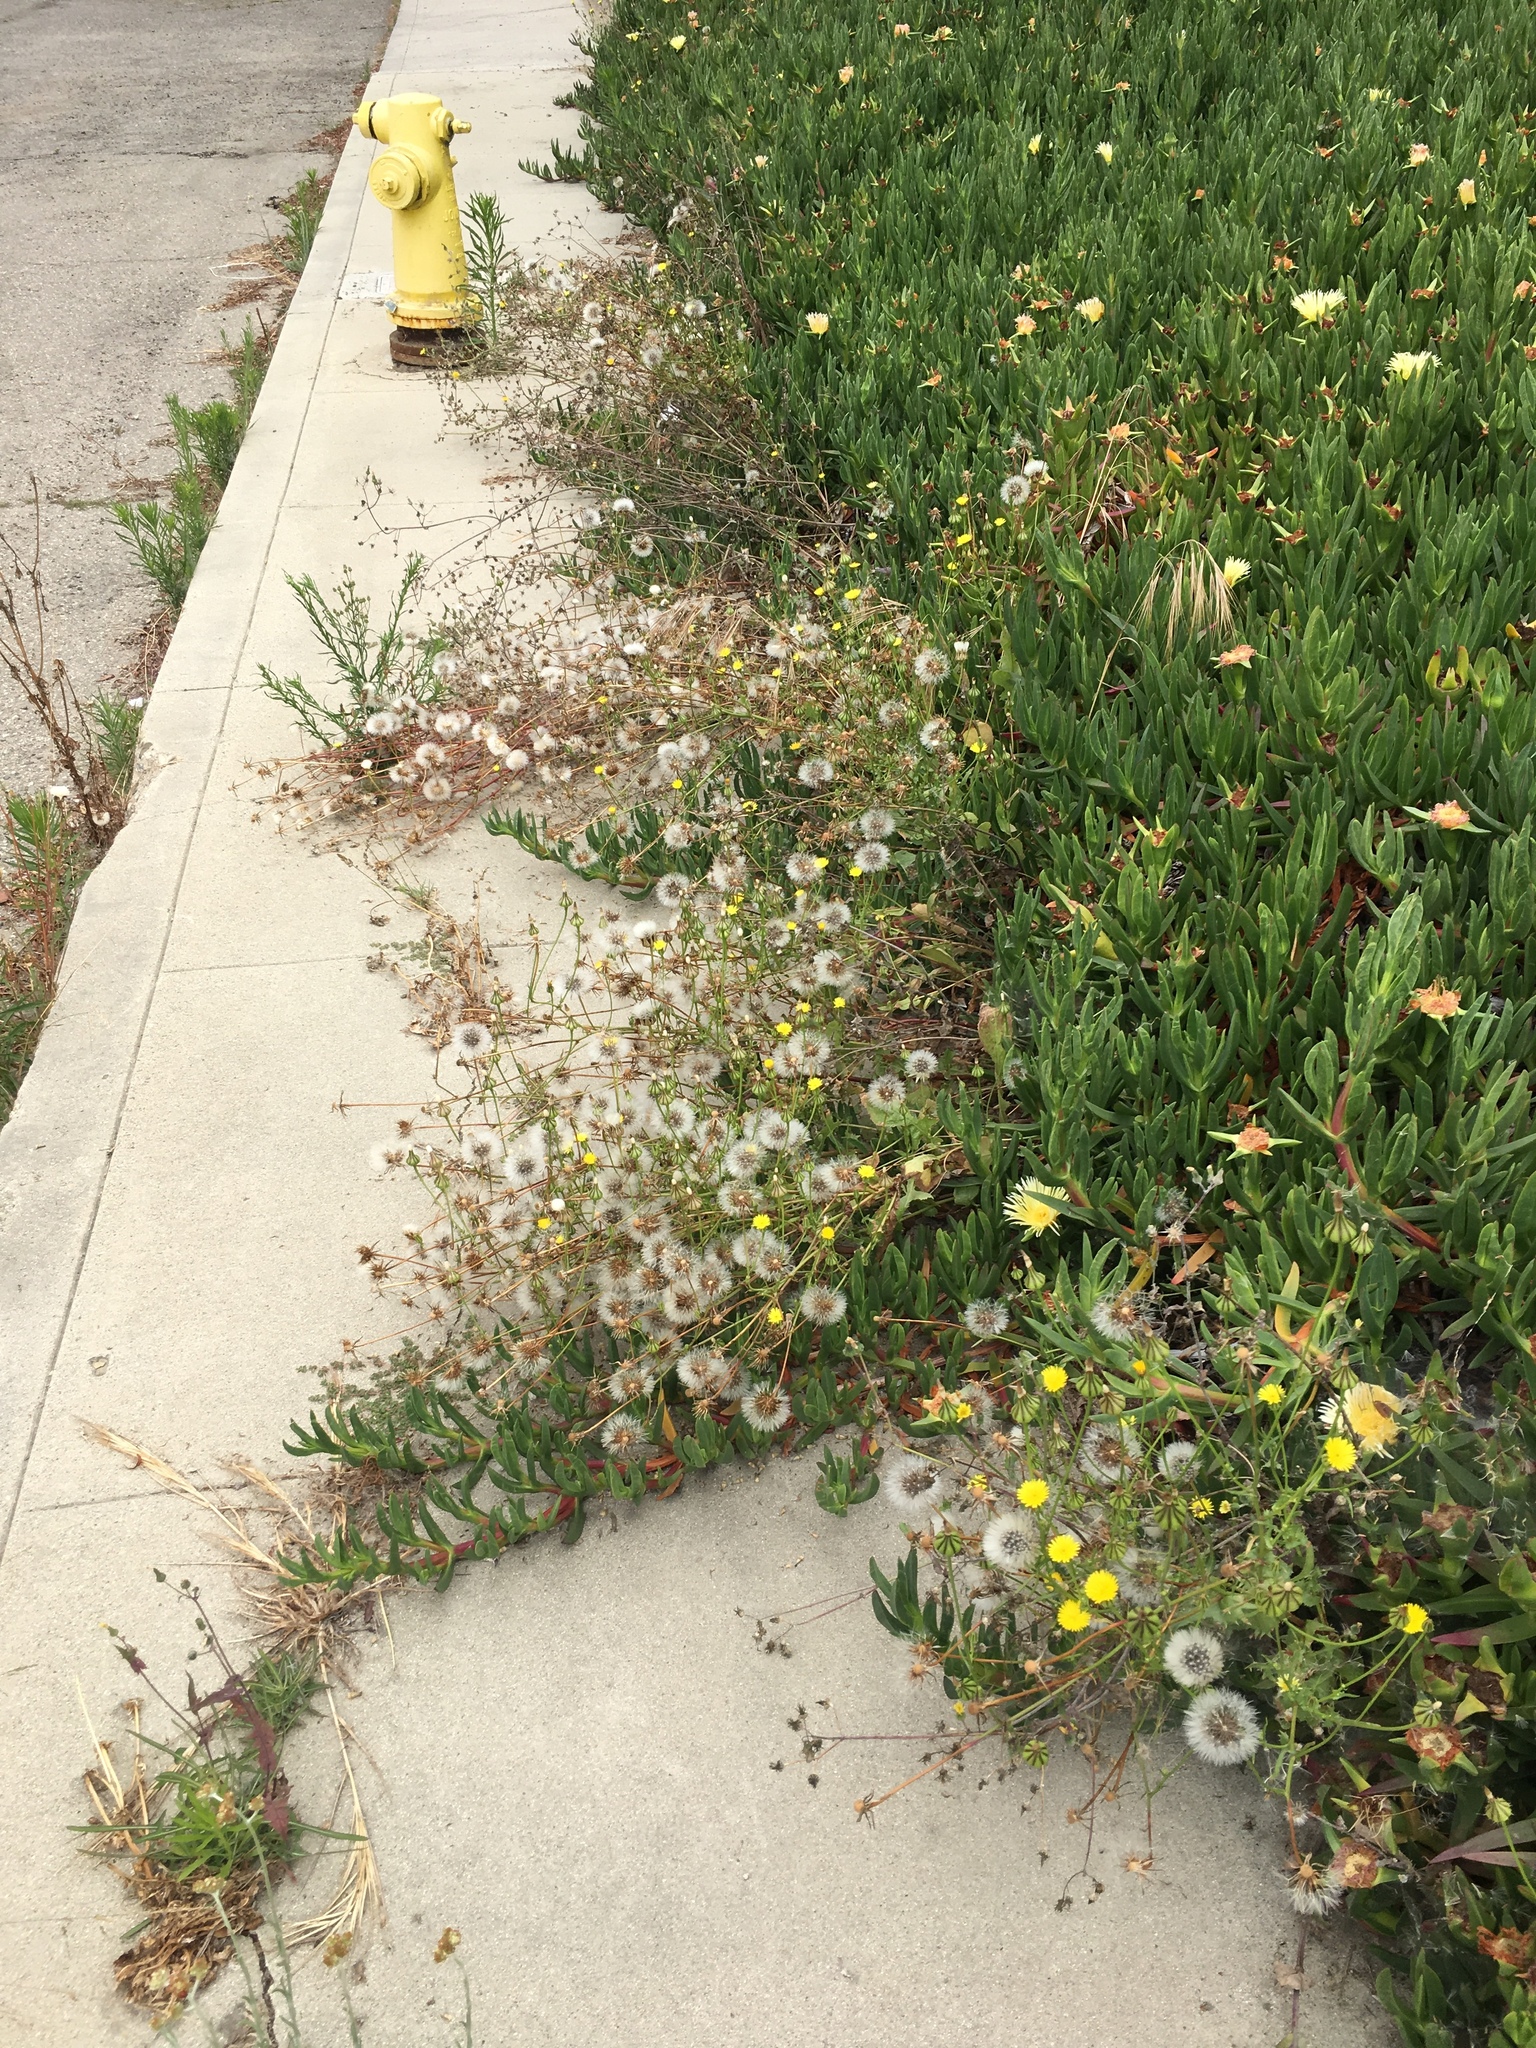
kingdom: Plantae
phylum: Tracheophyta
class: Magnoliopsida
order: Asterales
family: Asteraceae
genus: Urospermum
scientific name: Urospermum picroides
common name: False hawkbit
